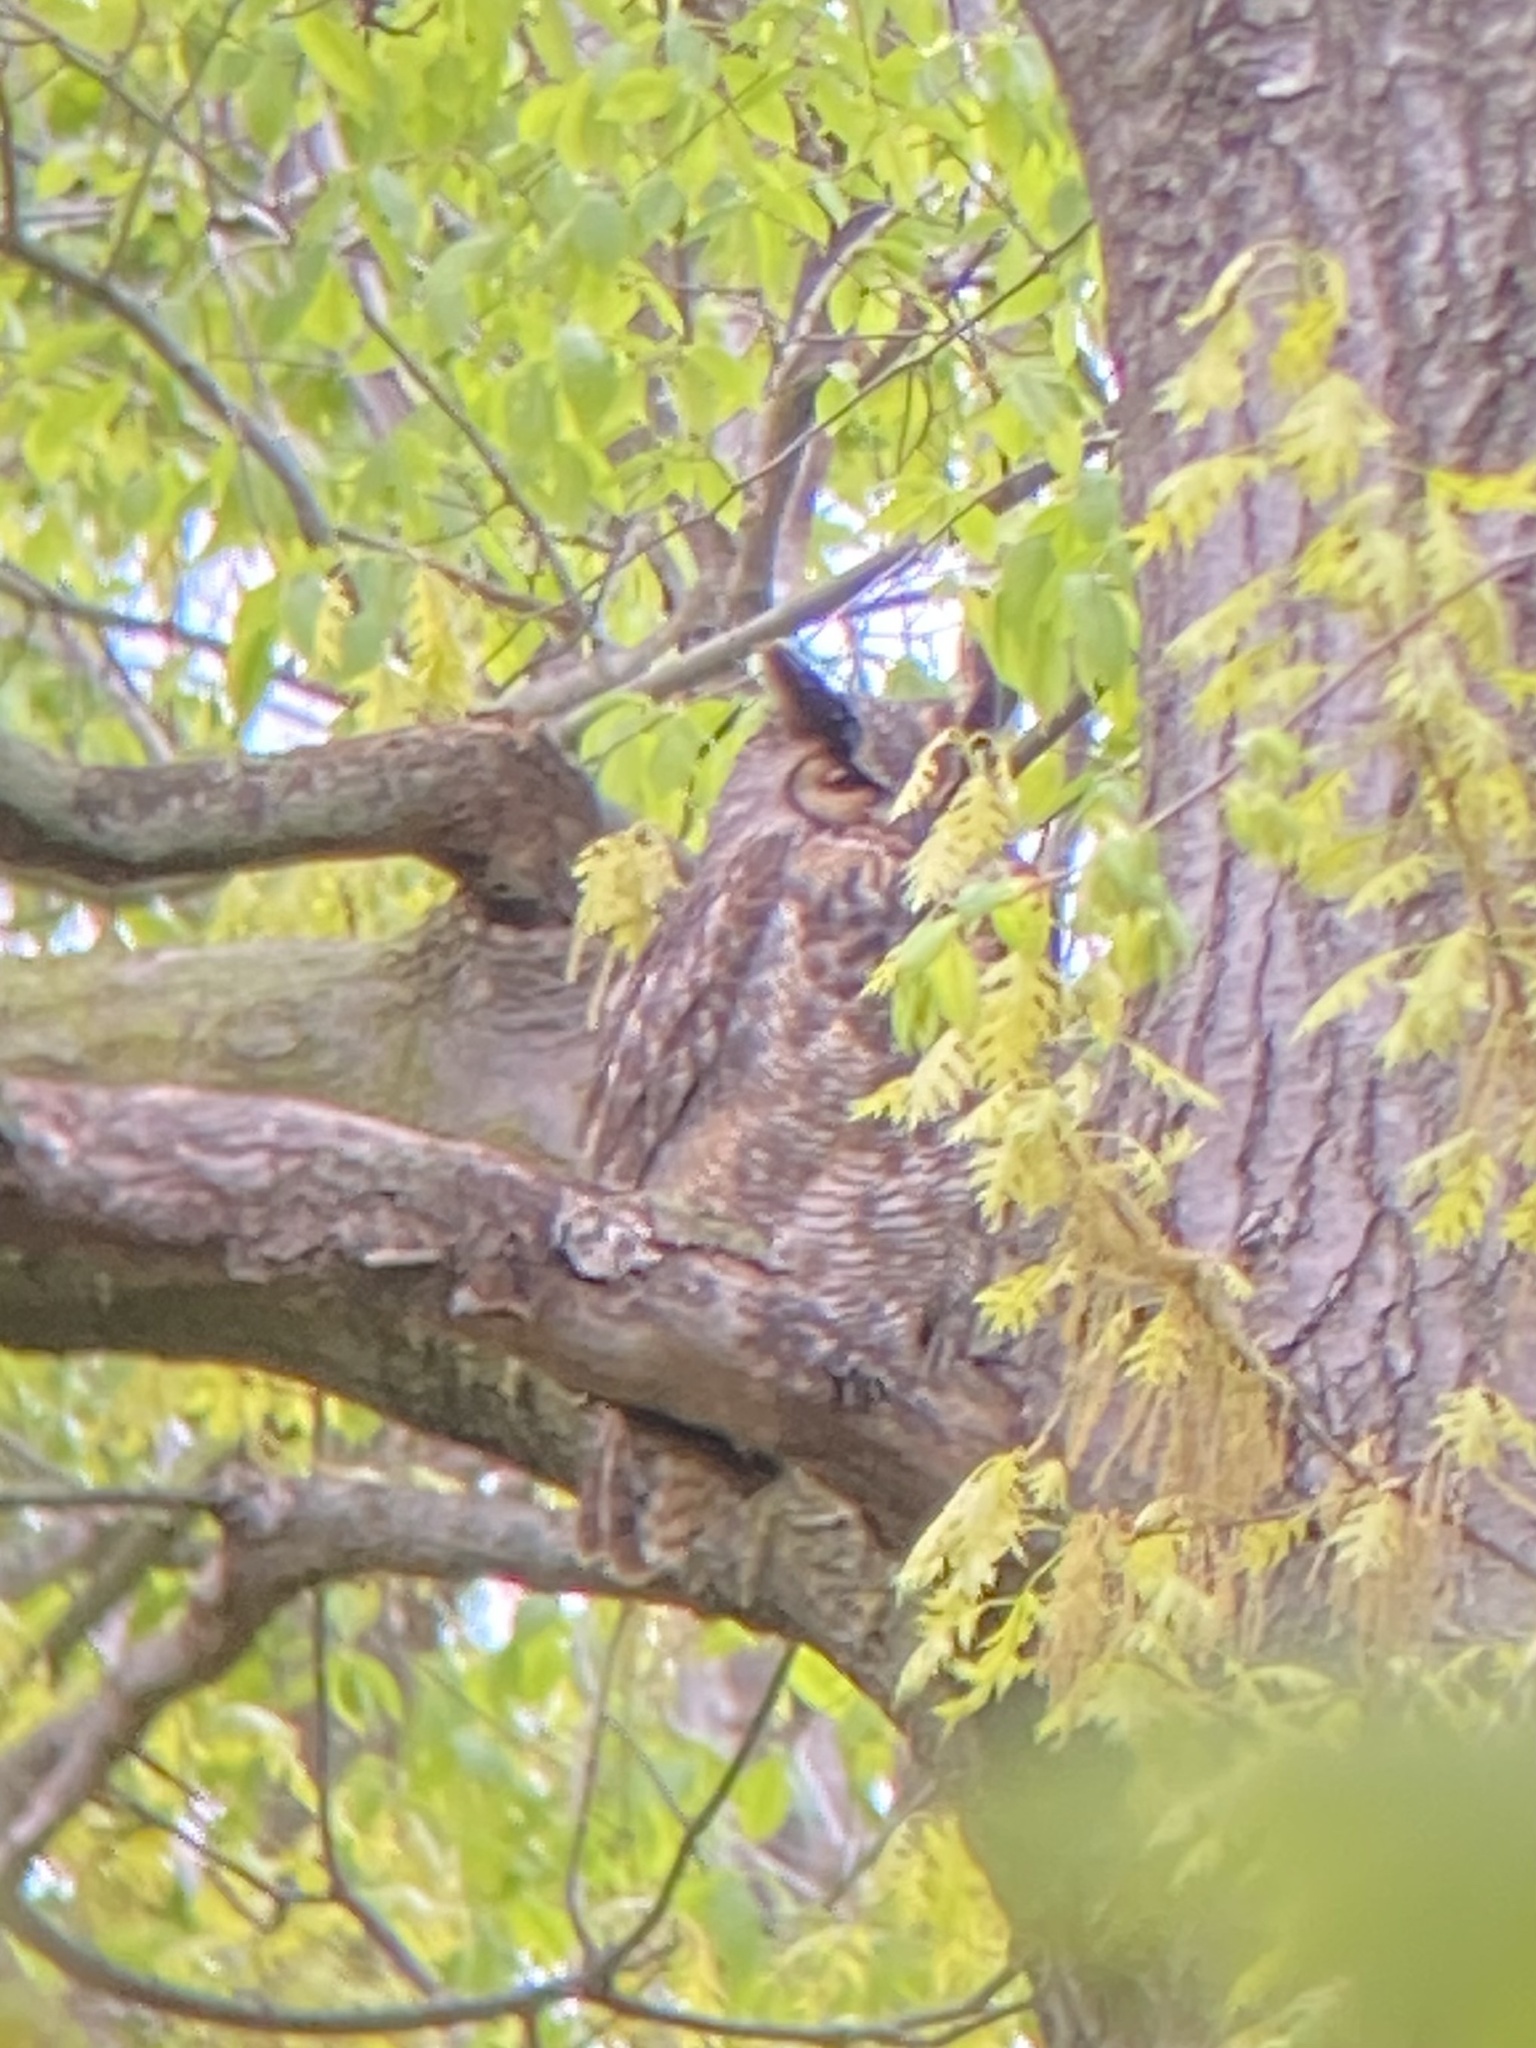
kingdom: Animalia
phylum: Chordata
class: Aves
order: Strigiformes
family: Strigidae
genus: Bubo
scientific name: Bubo virginianus
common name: Great horned owl
